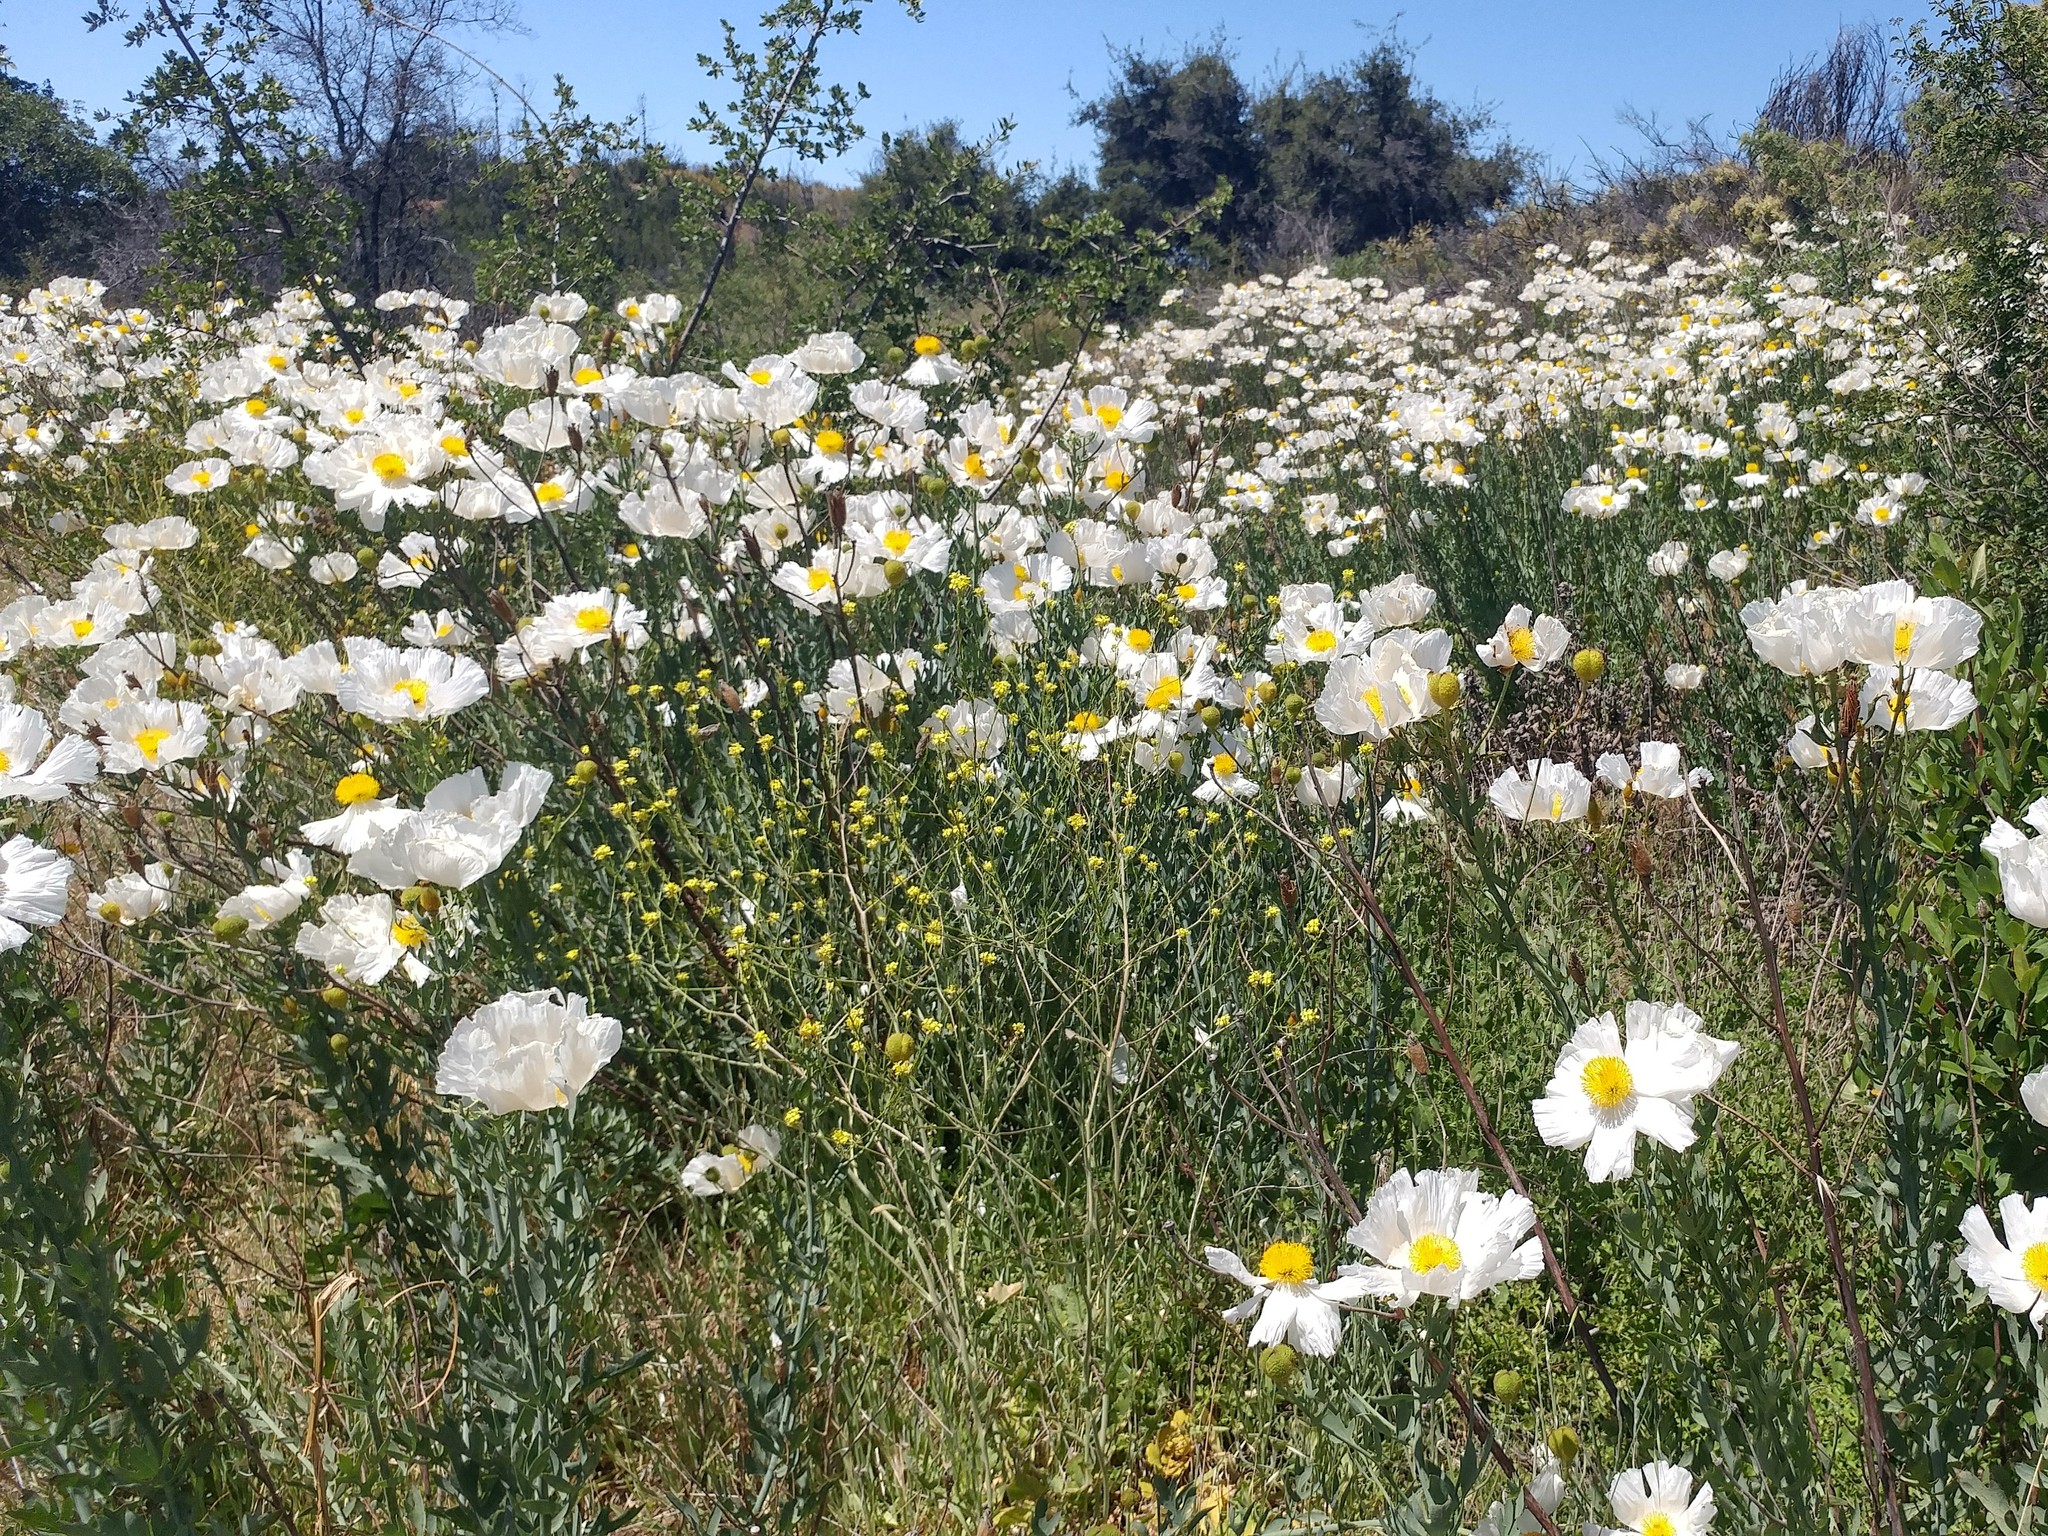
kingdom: Plantae
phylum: Tracheophyta
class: Magnoliopsida
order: Ranunculales
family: Papaveraceae
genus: Romneya
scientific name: Romneya trichocalyx
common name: Hairy matilija-poppy
